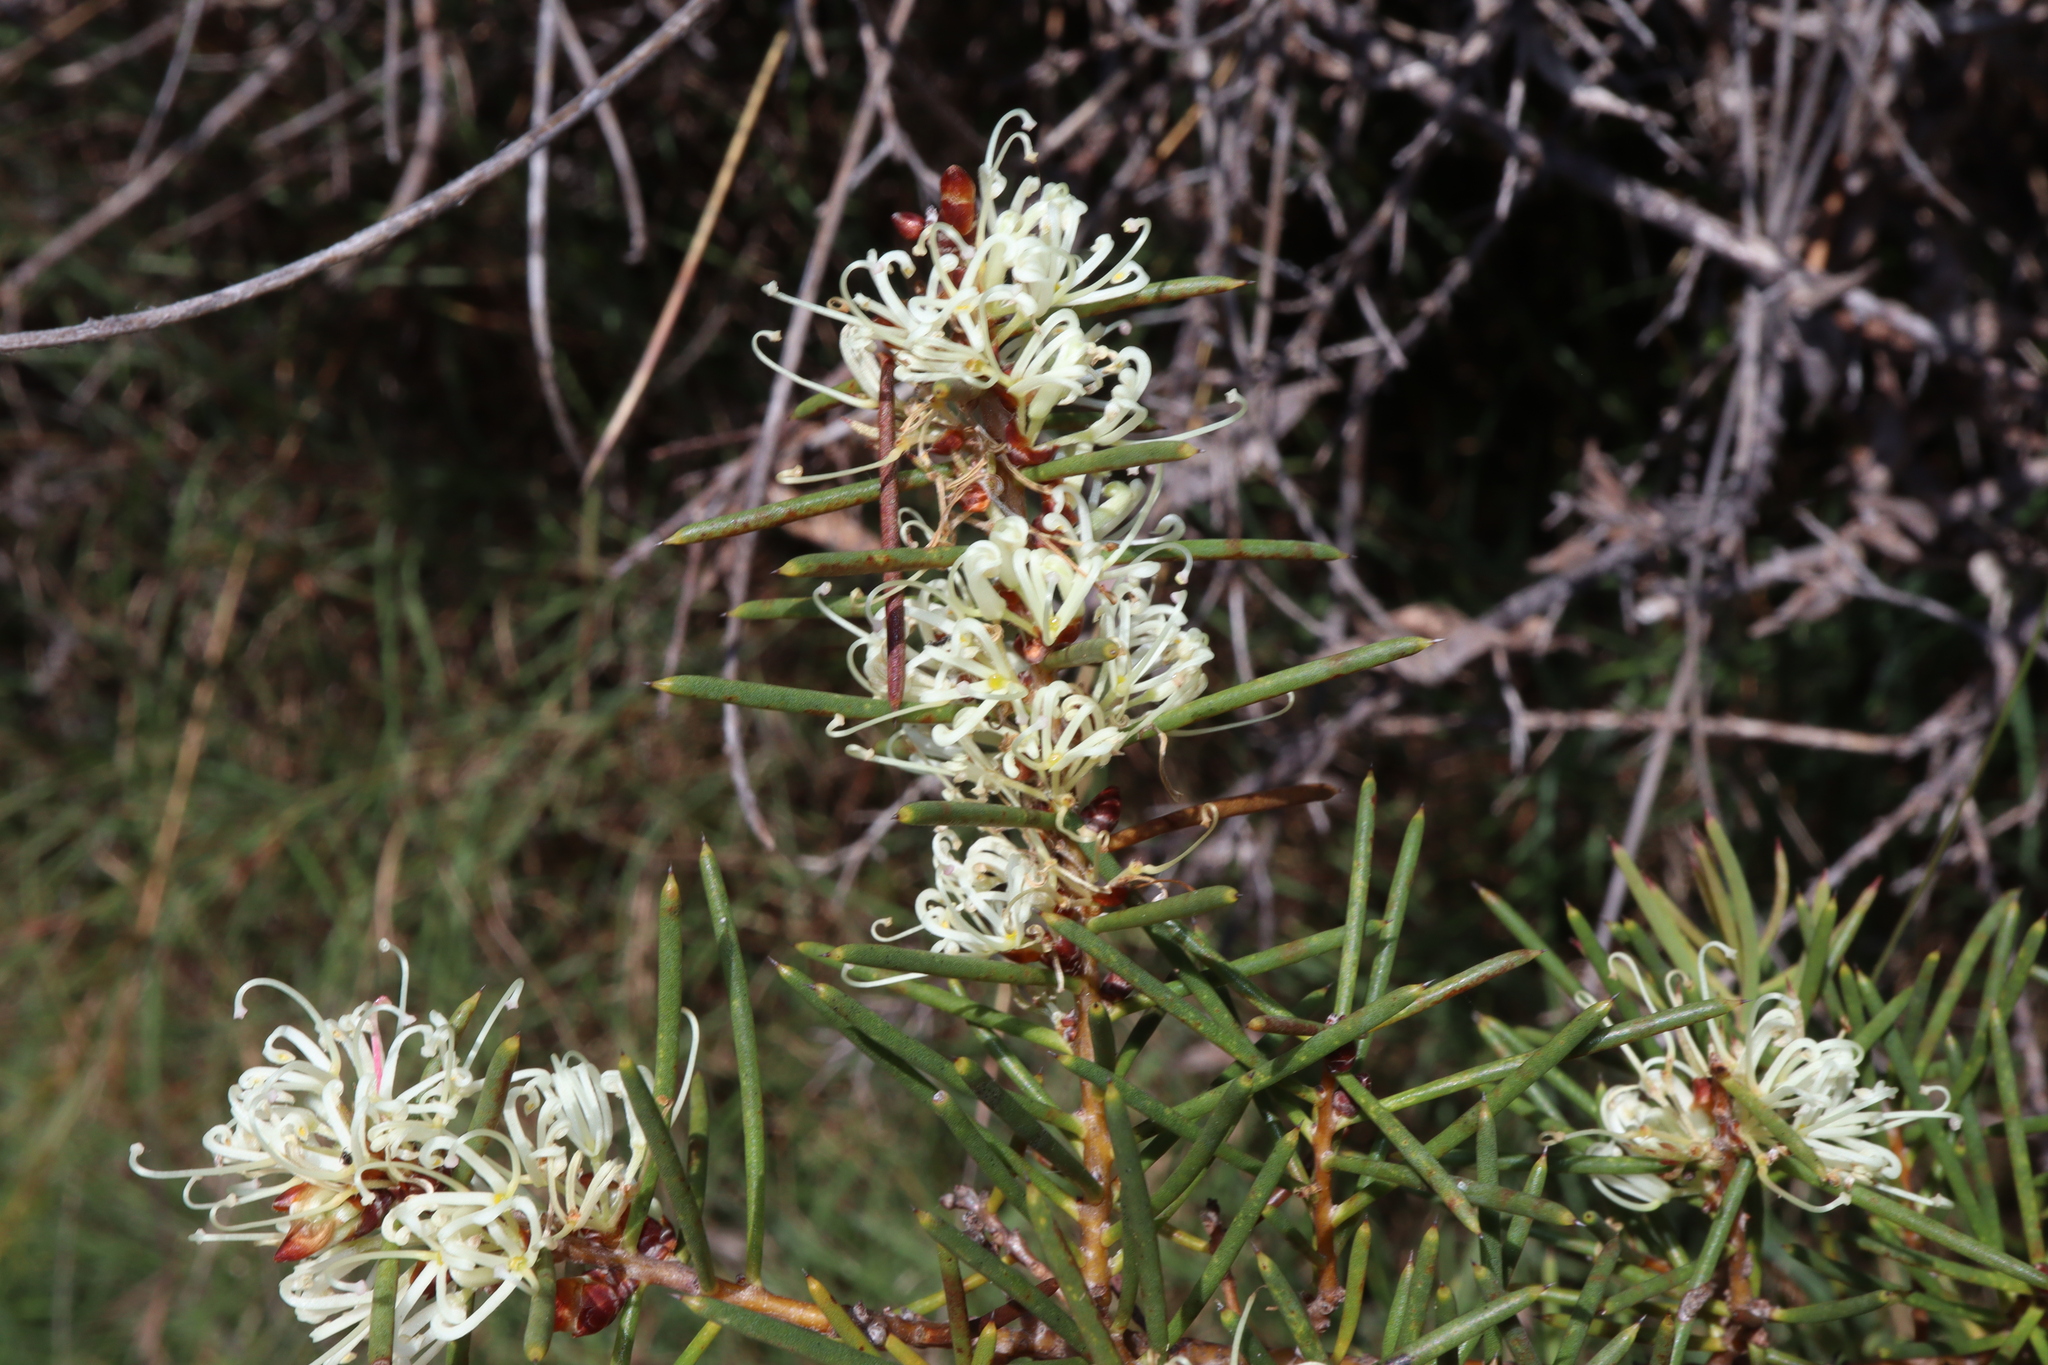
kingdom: Plantae
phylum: Tracheophyta
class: Magnoliopsida
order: Proteales
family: Proteaceae
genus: Hakea
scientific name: Hakea teretifolia
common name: Dagger hakea
